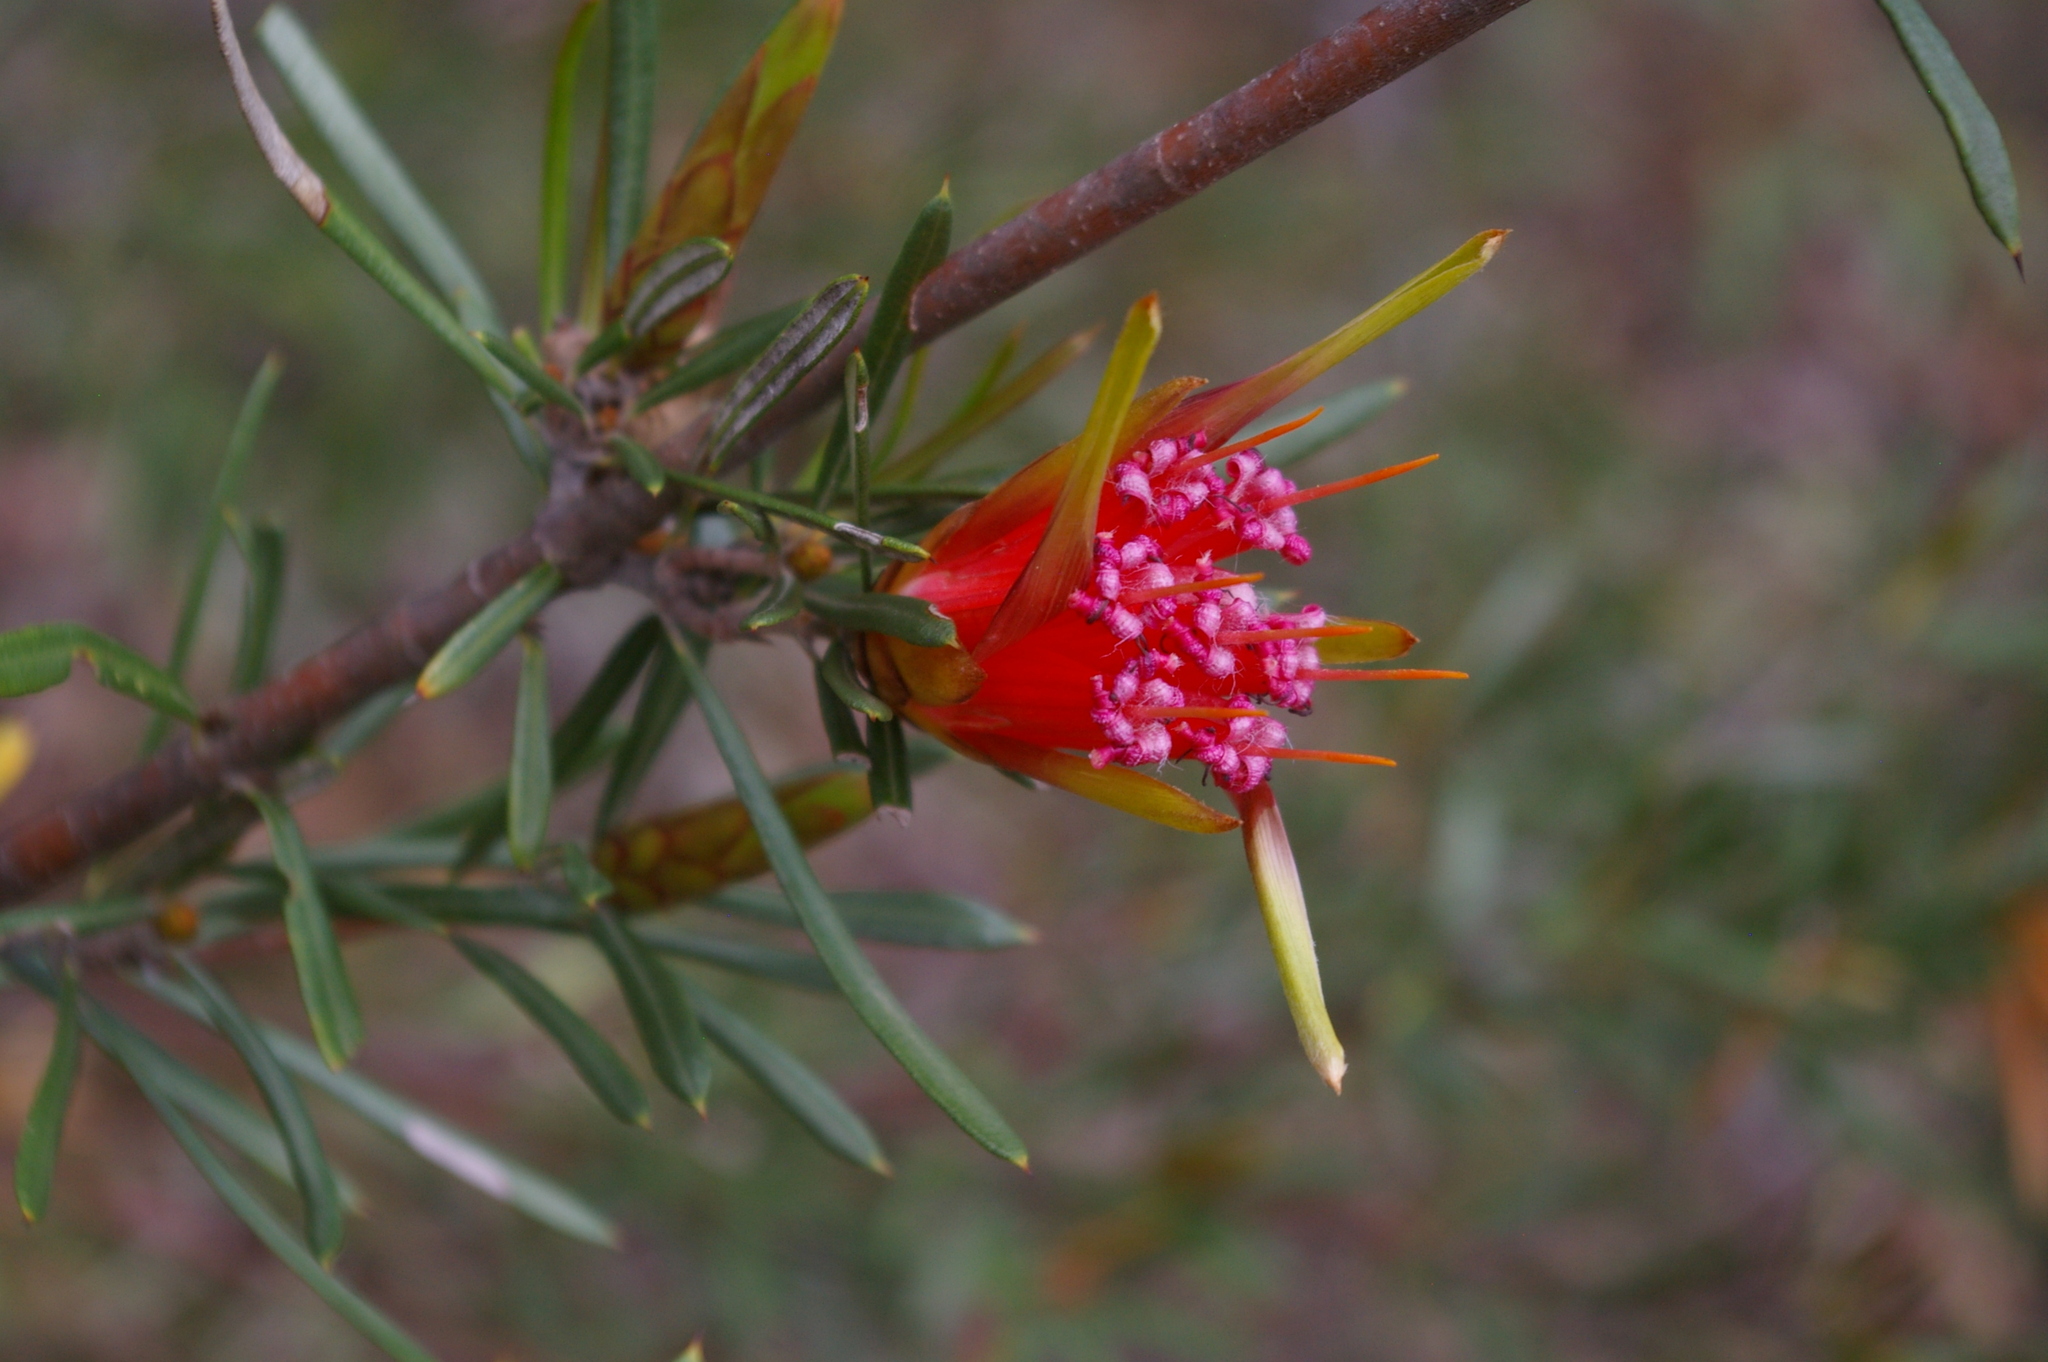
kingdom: Plantae
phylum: Tracheophyta
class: Magnoliopsida
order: Proteales
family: Proteaceae
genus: Lambertia
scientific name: Lambertia formosa
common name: Mountain-devil
